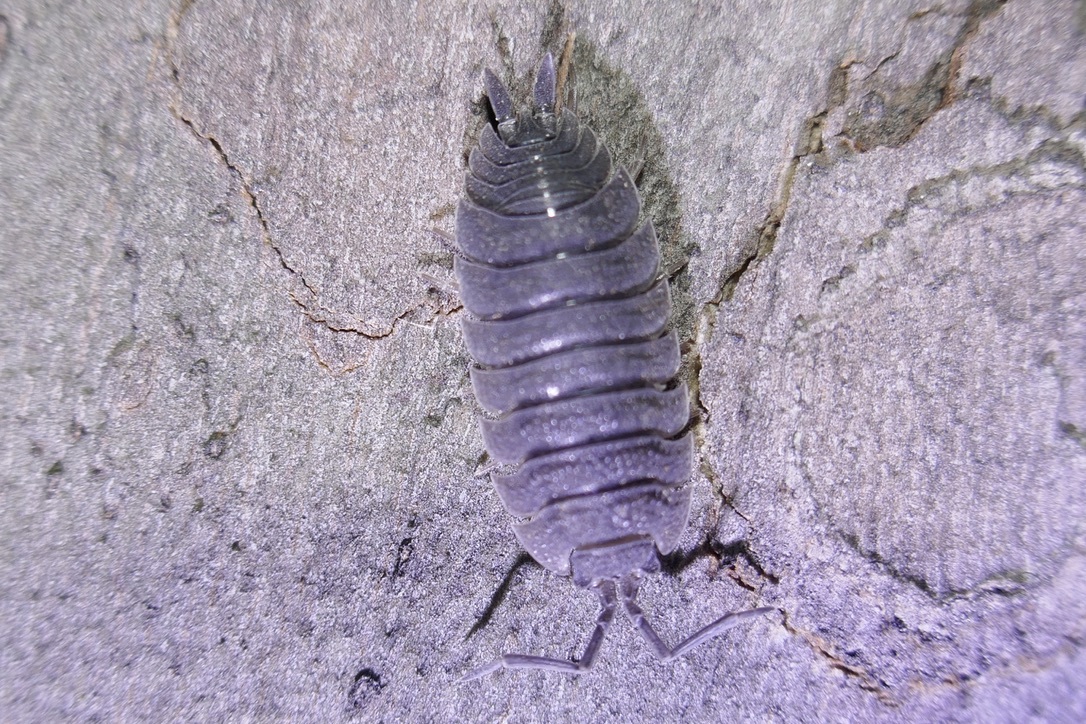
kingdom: Animalia
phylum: Arthropoda
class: Malacostraca
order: Isopoda
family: Porcellionidae
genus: Porcellio
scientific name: Porcellio scaber
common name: Common rough woodlouse
